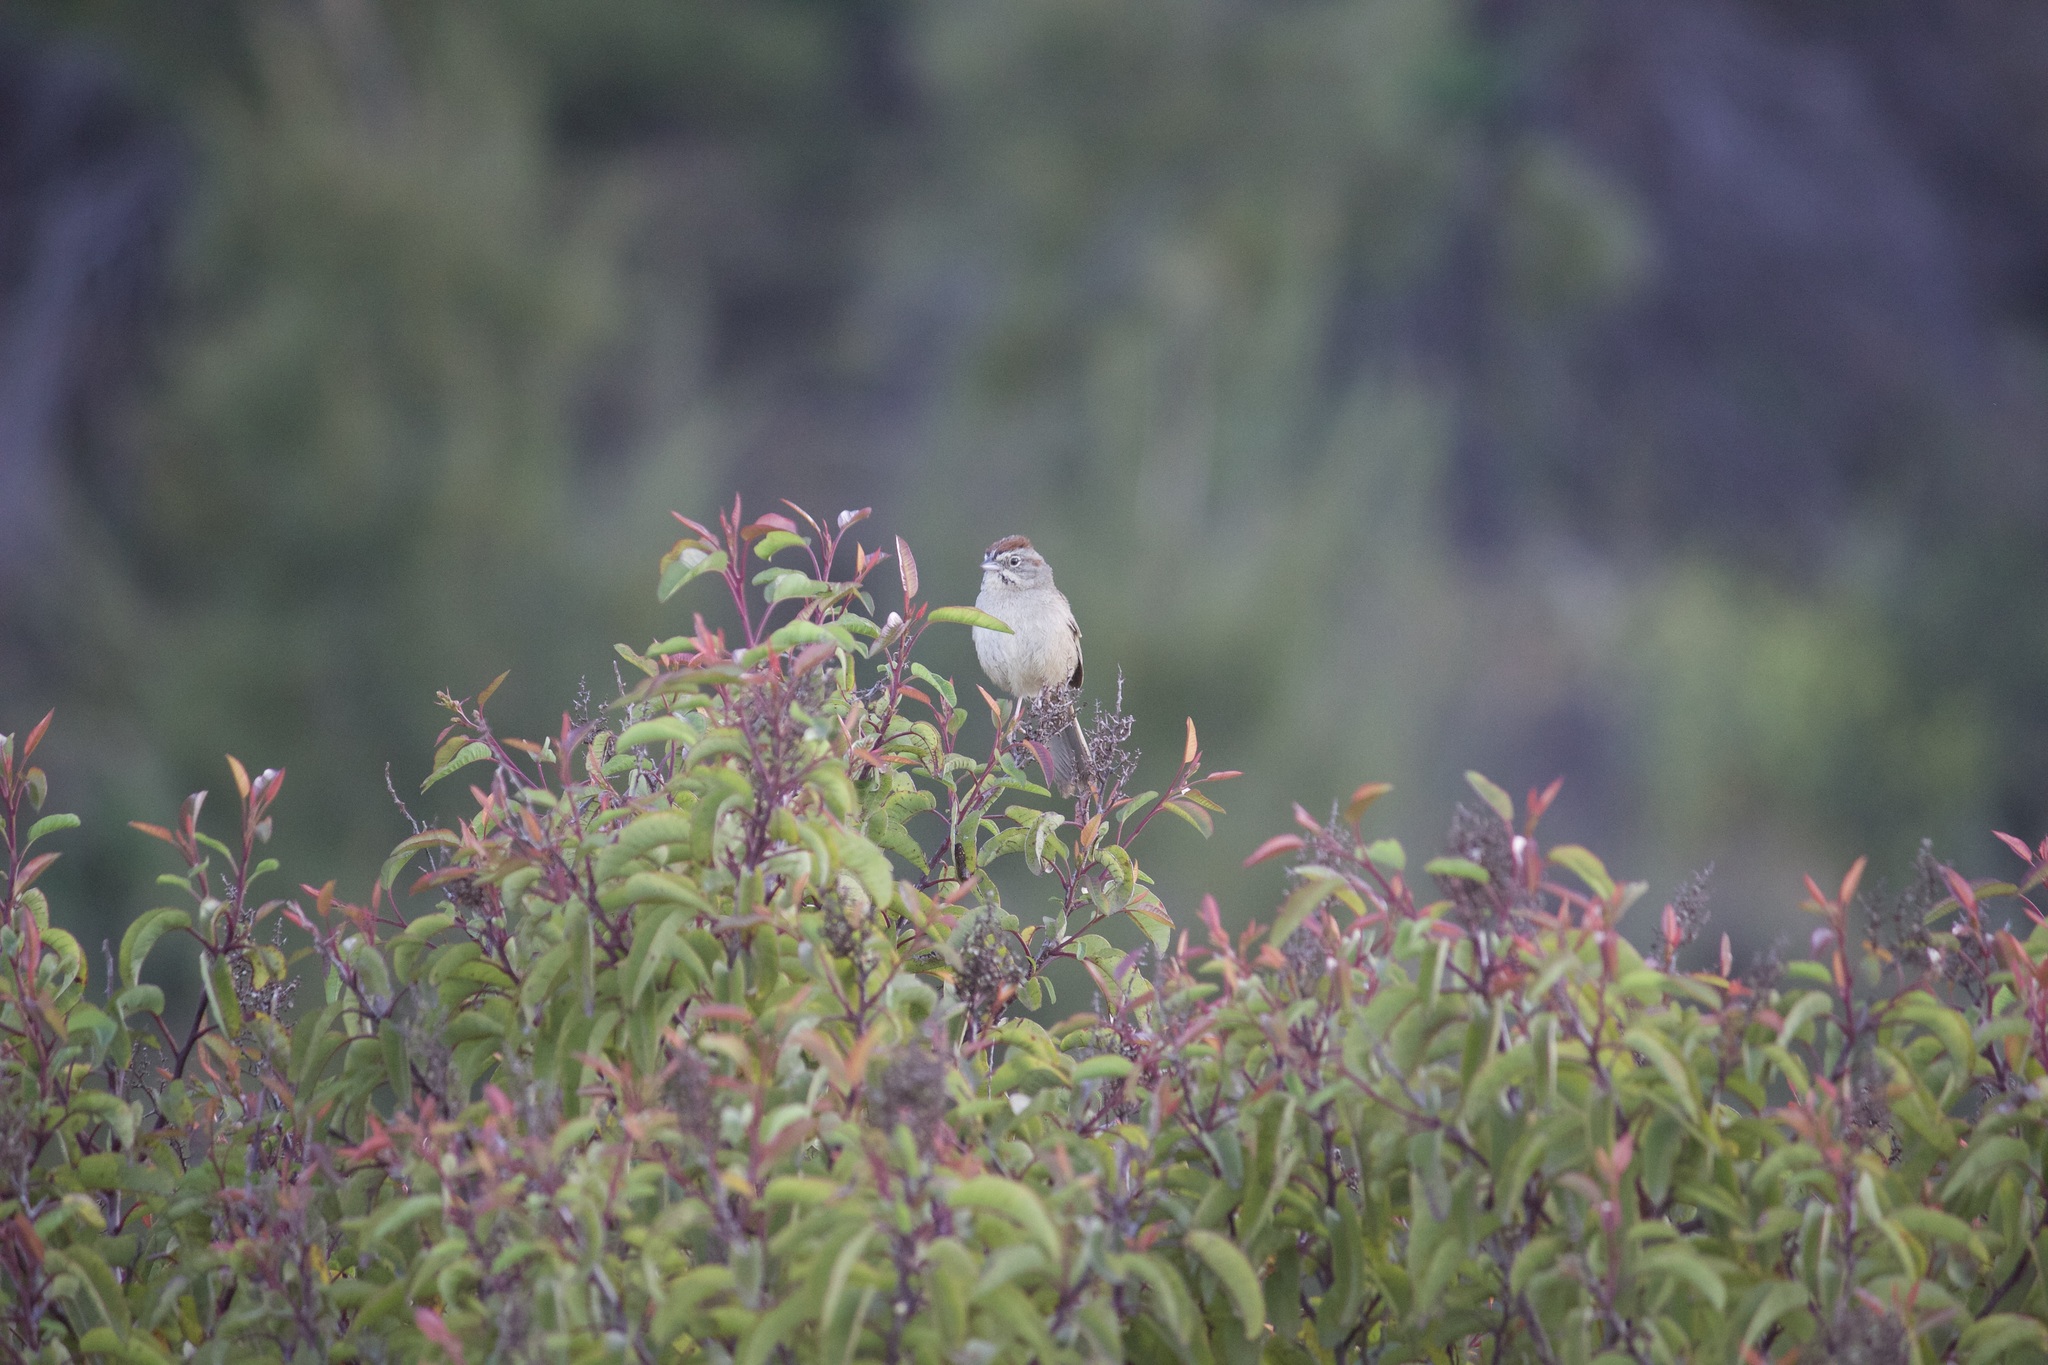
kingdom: Animalia
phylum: Chordata
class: Aves
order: Passeriformes
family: Passerellidae
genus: Aimophila
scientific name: Aimophila ruficeps
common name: Rufous-crowned sparrow
